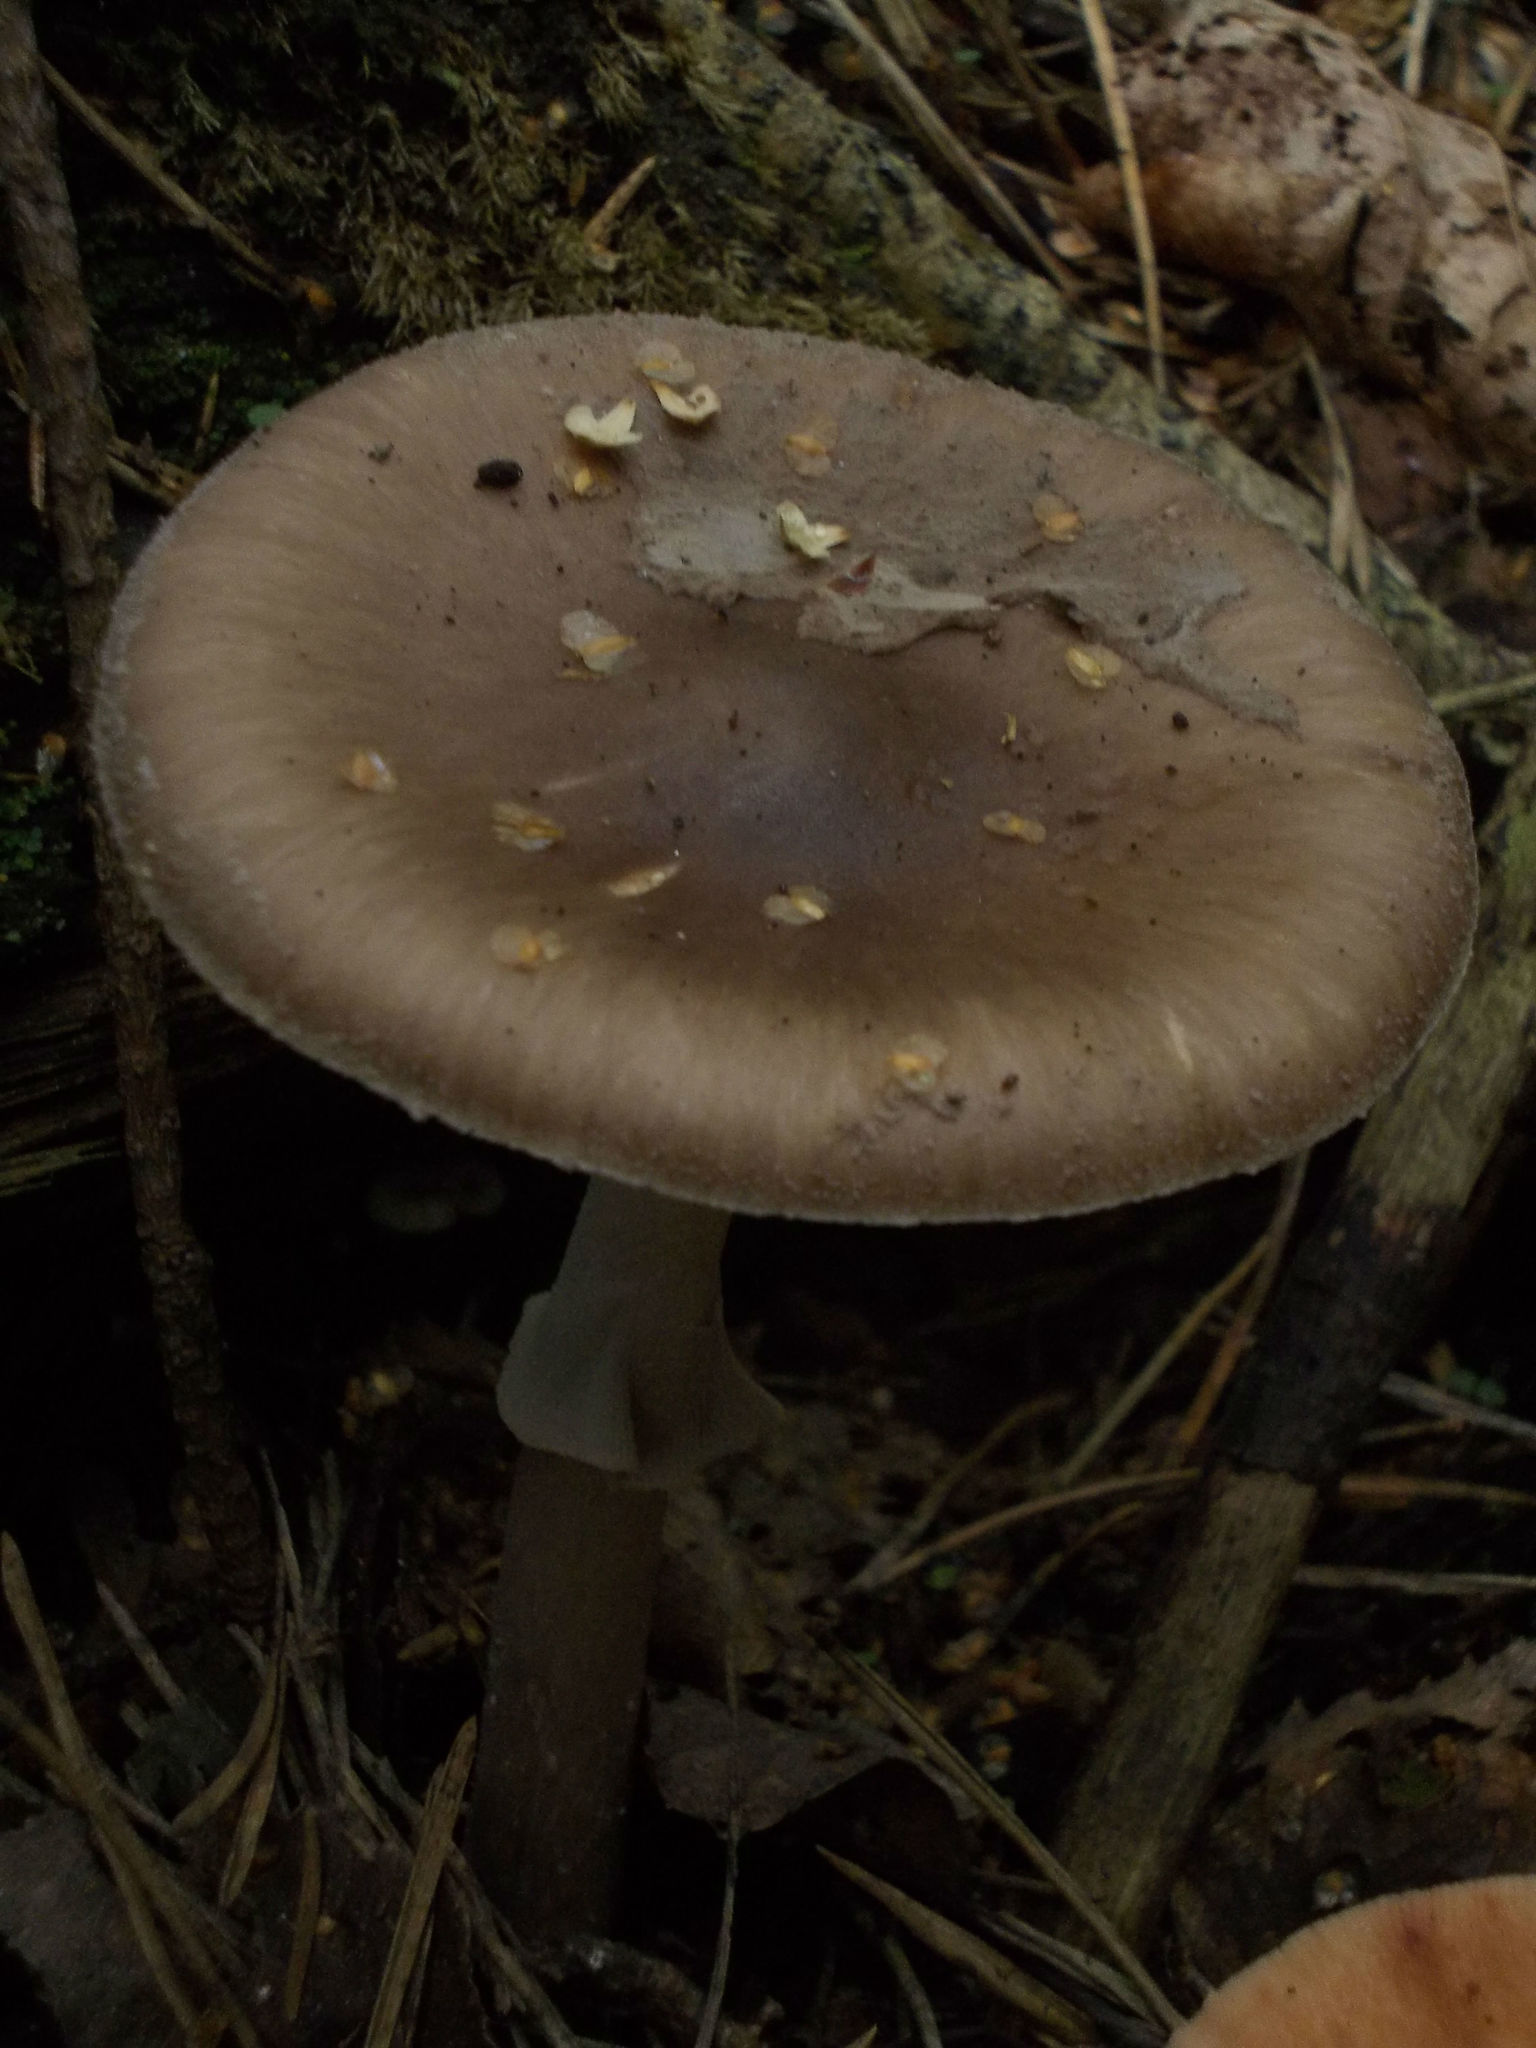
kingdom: Fungi
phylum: Basidiomycota
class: Agaricomycetes
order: Agaricales
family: Amanitaceae
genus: Amanita
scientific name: Amanita porphyria
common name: Grey veiled amanita
